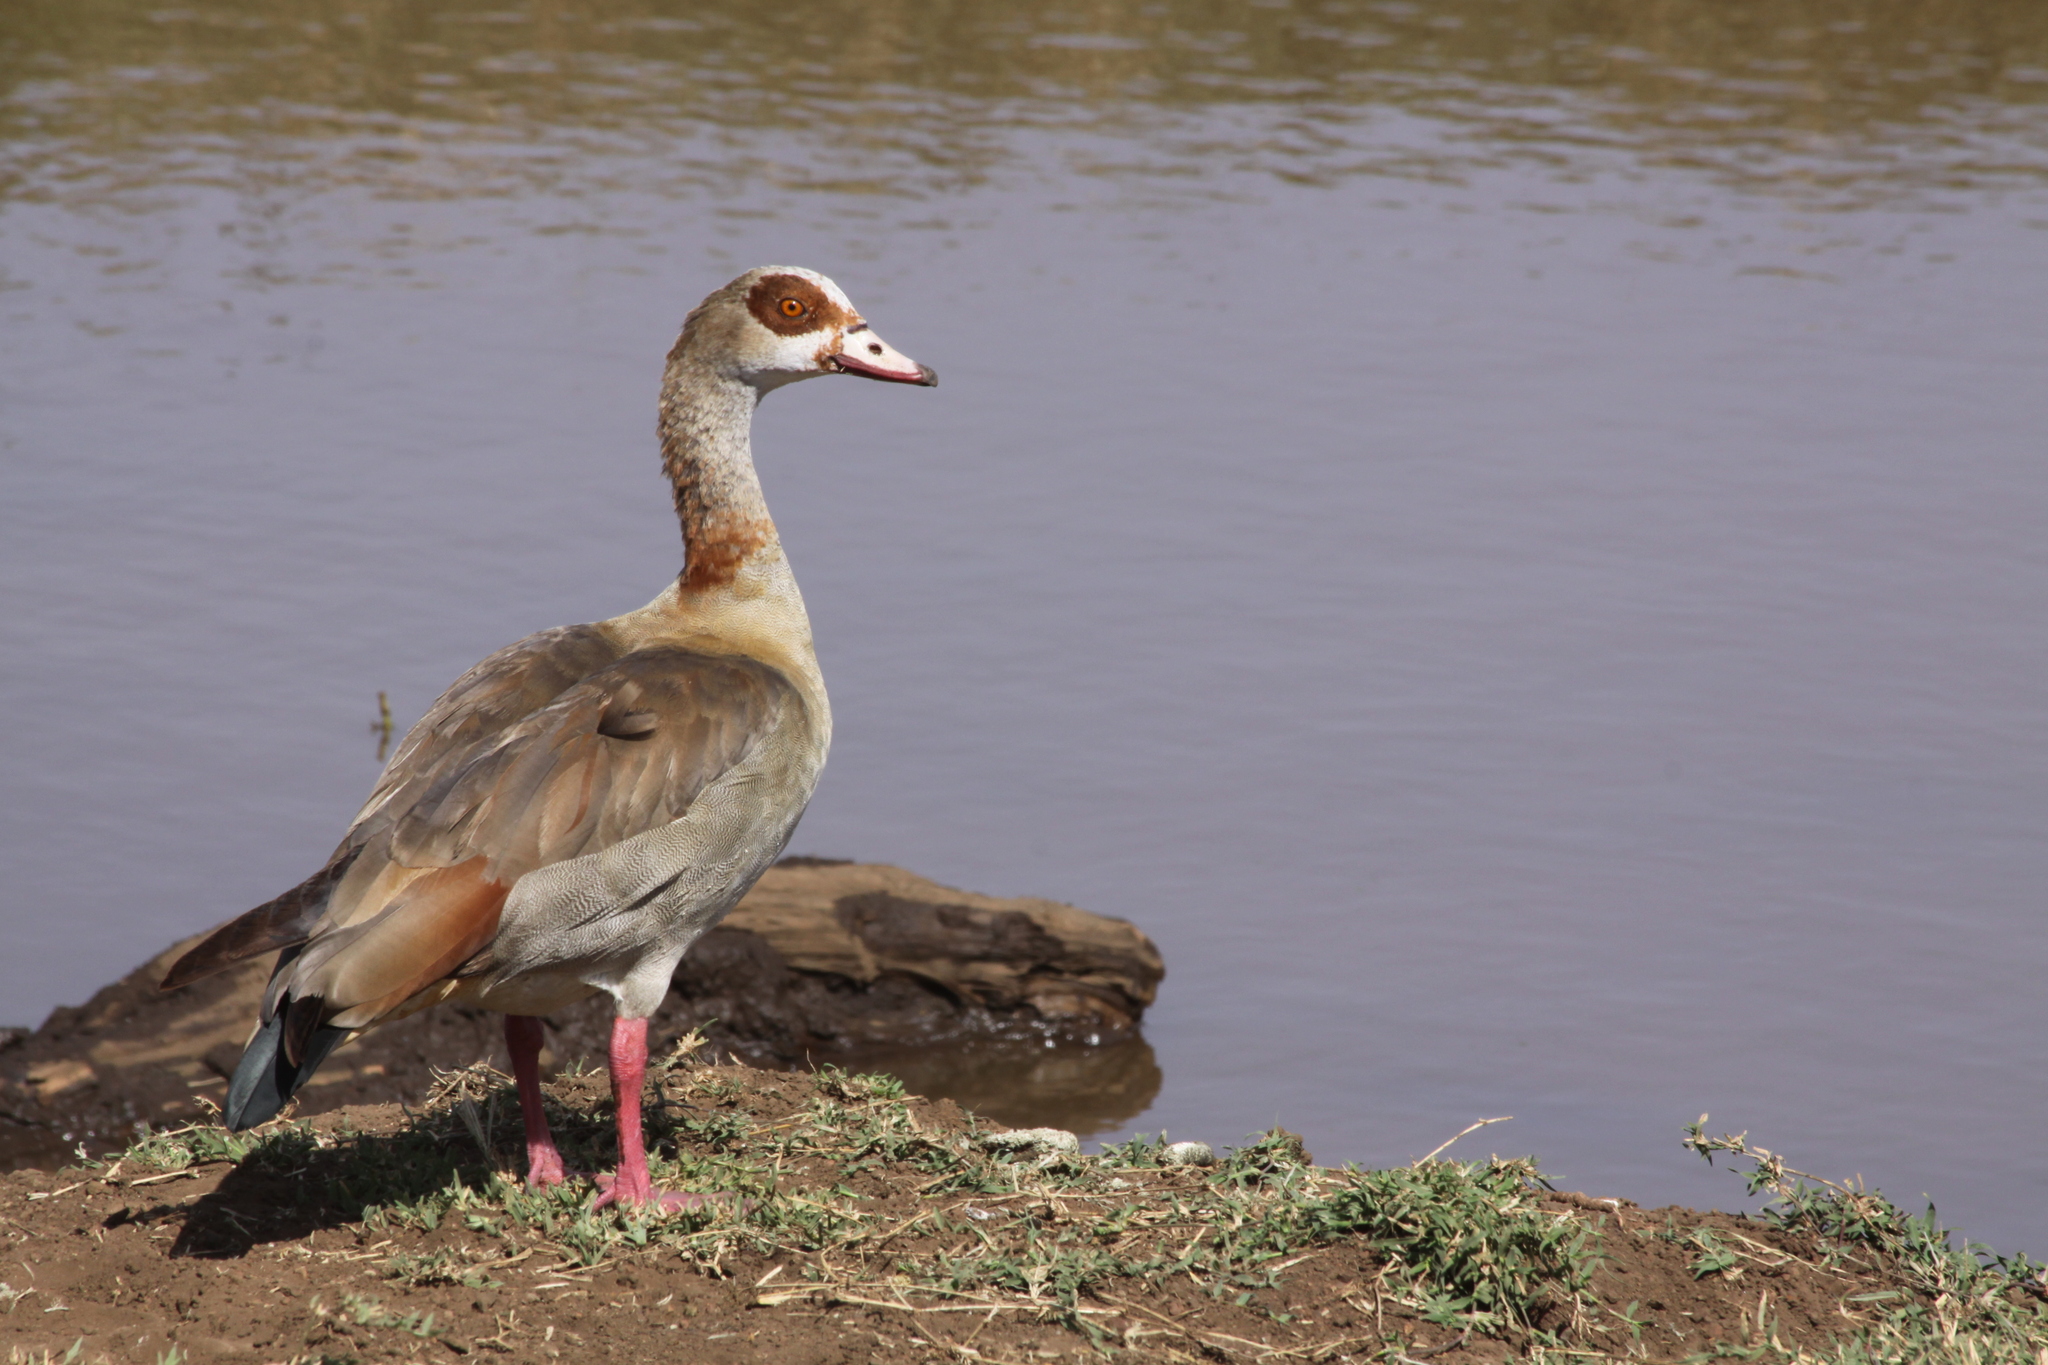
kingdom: Animalia
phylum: Chordata
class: Aves
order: Anseriformes
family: Anatidae
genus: Alopochen
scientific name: Alopochen aegyptiaca
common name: Egyptian goose
